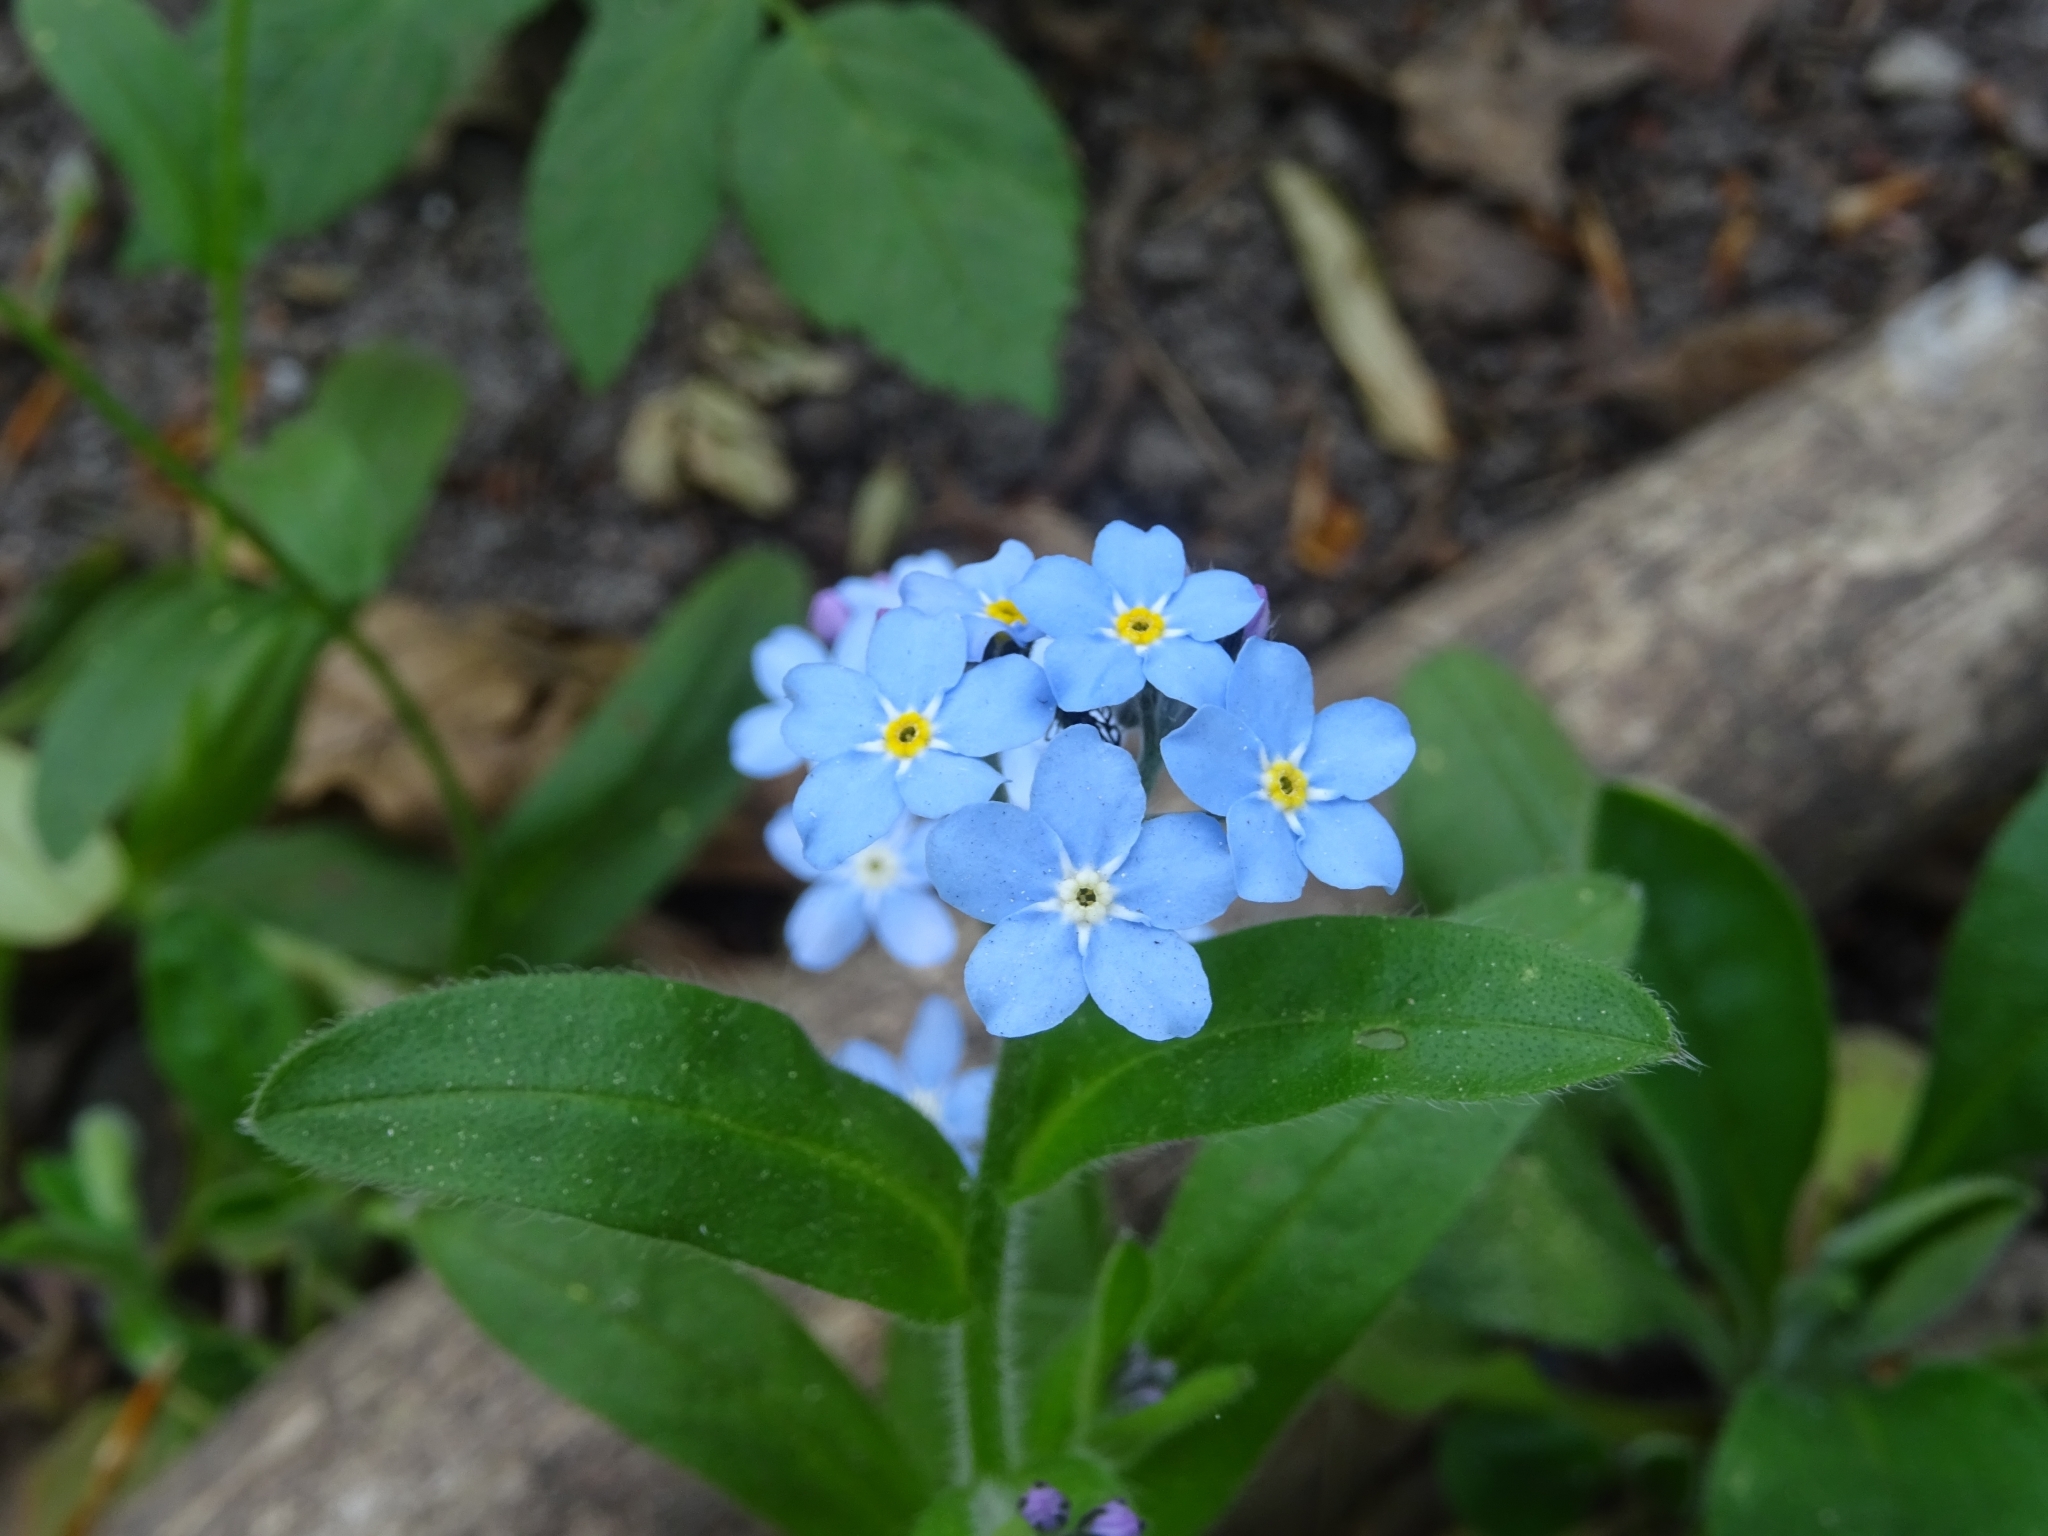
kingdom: Plantae
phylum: Tracheophyta
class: Magnoliopsida
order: Boraginales
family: Boraginaceae
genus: Myosotis
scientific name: Myosotis sylvatica
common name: Wood forget-me-not
